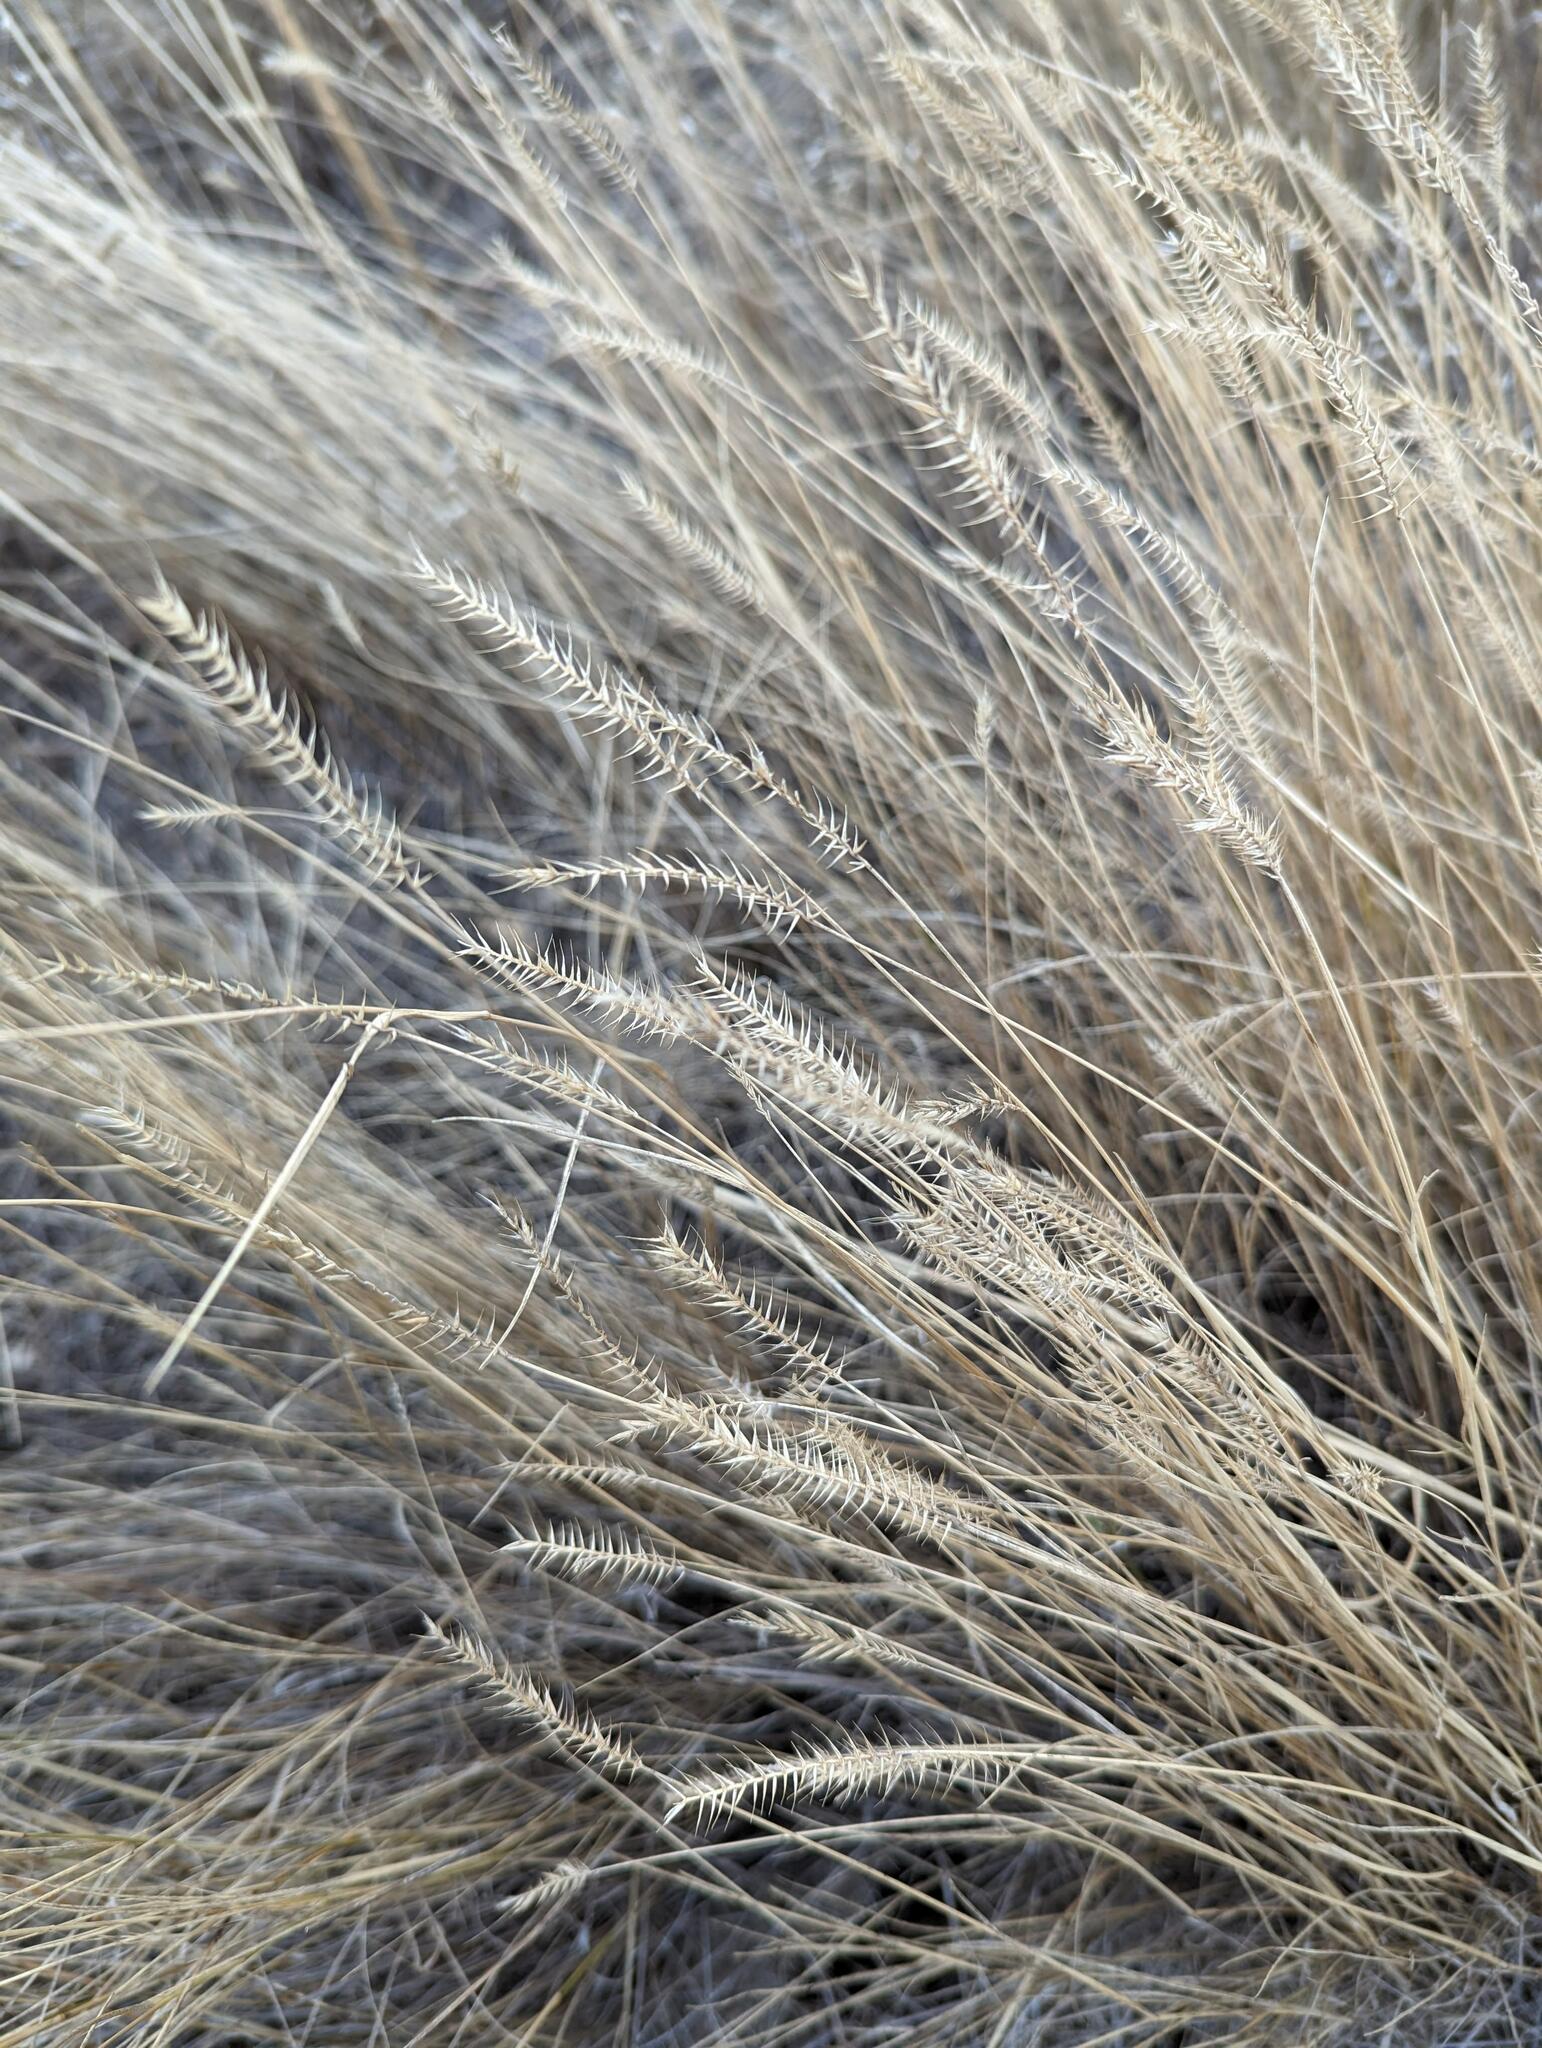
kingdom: Plantae
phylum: Tracheophyta
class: Liliopsida
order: Poales
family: Poaceae
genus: Agropyron
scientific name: Agropyron cristatum
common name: Crested wheatgrass
